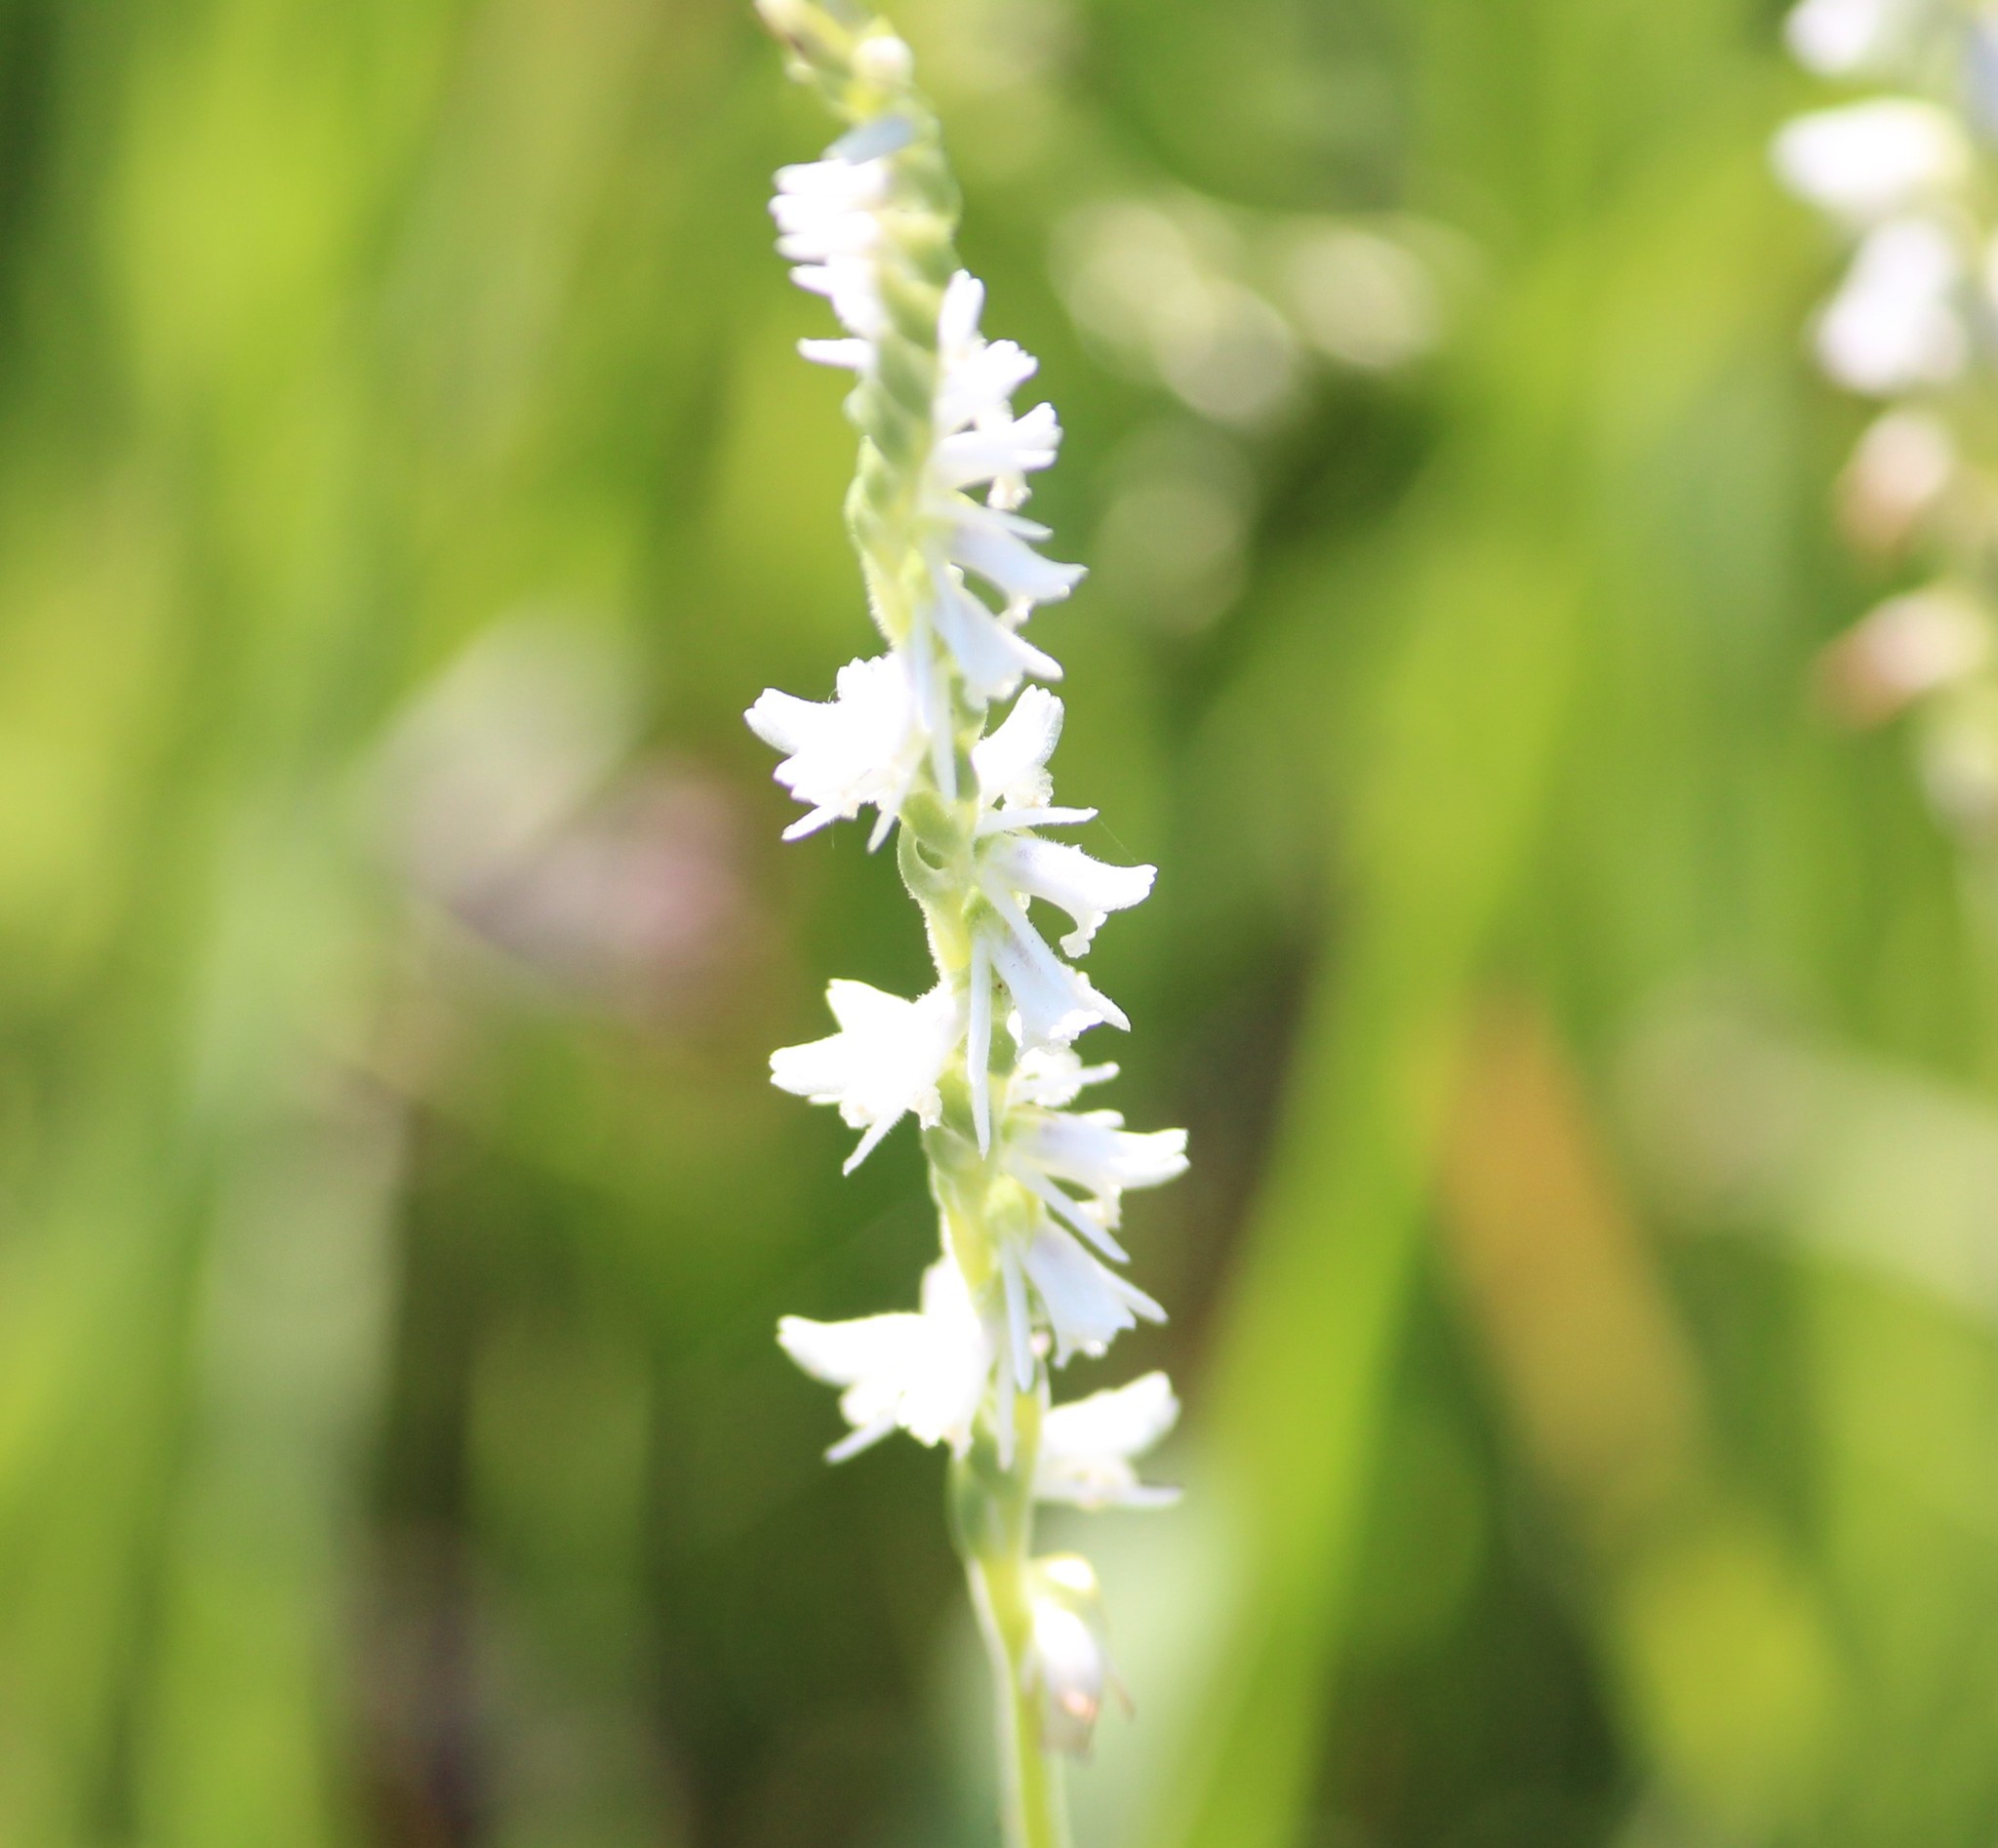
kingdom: Plantae
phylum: Tracheophyta
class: Liliopsida
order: Asparagales
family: Orchidaceae
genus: Spiranthes
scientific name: Spiranthes vernalis
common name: Spring ladies'-tresses
